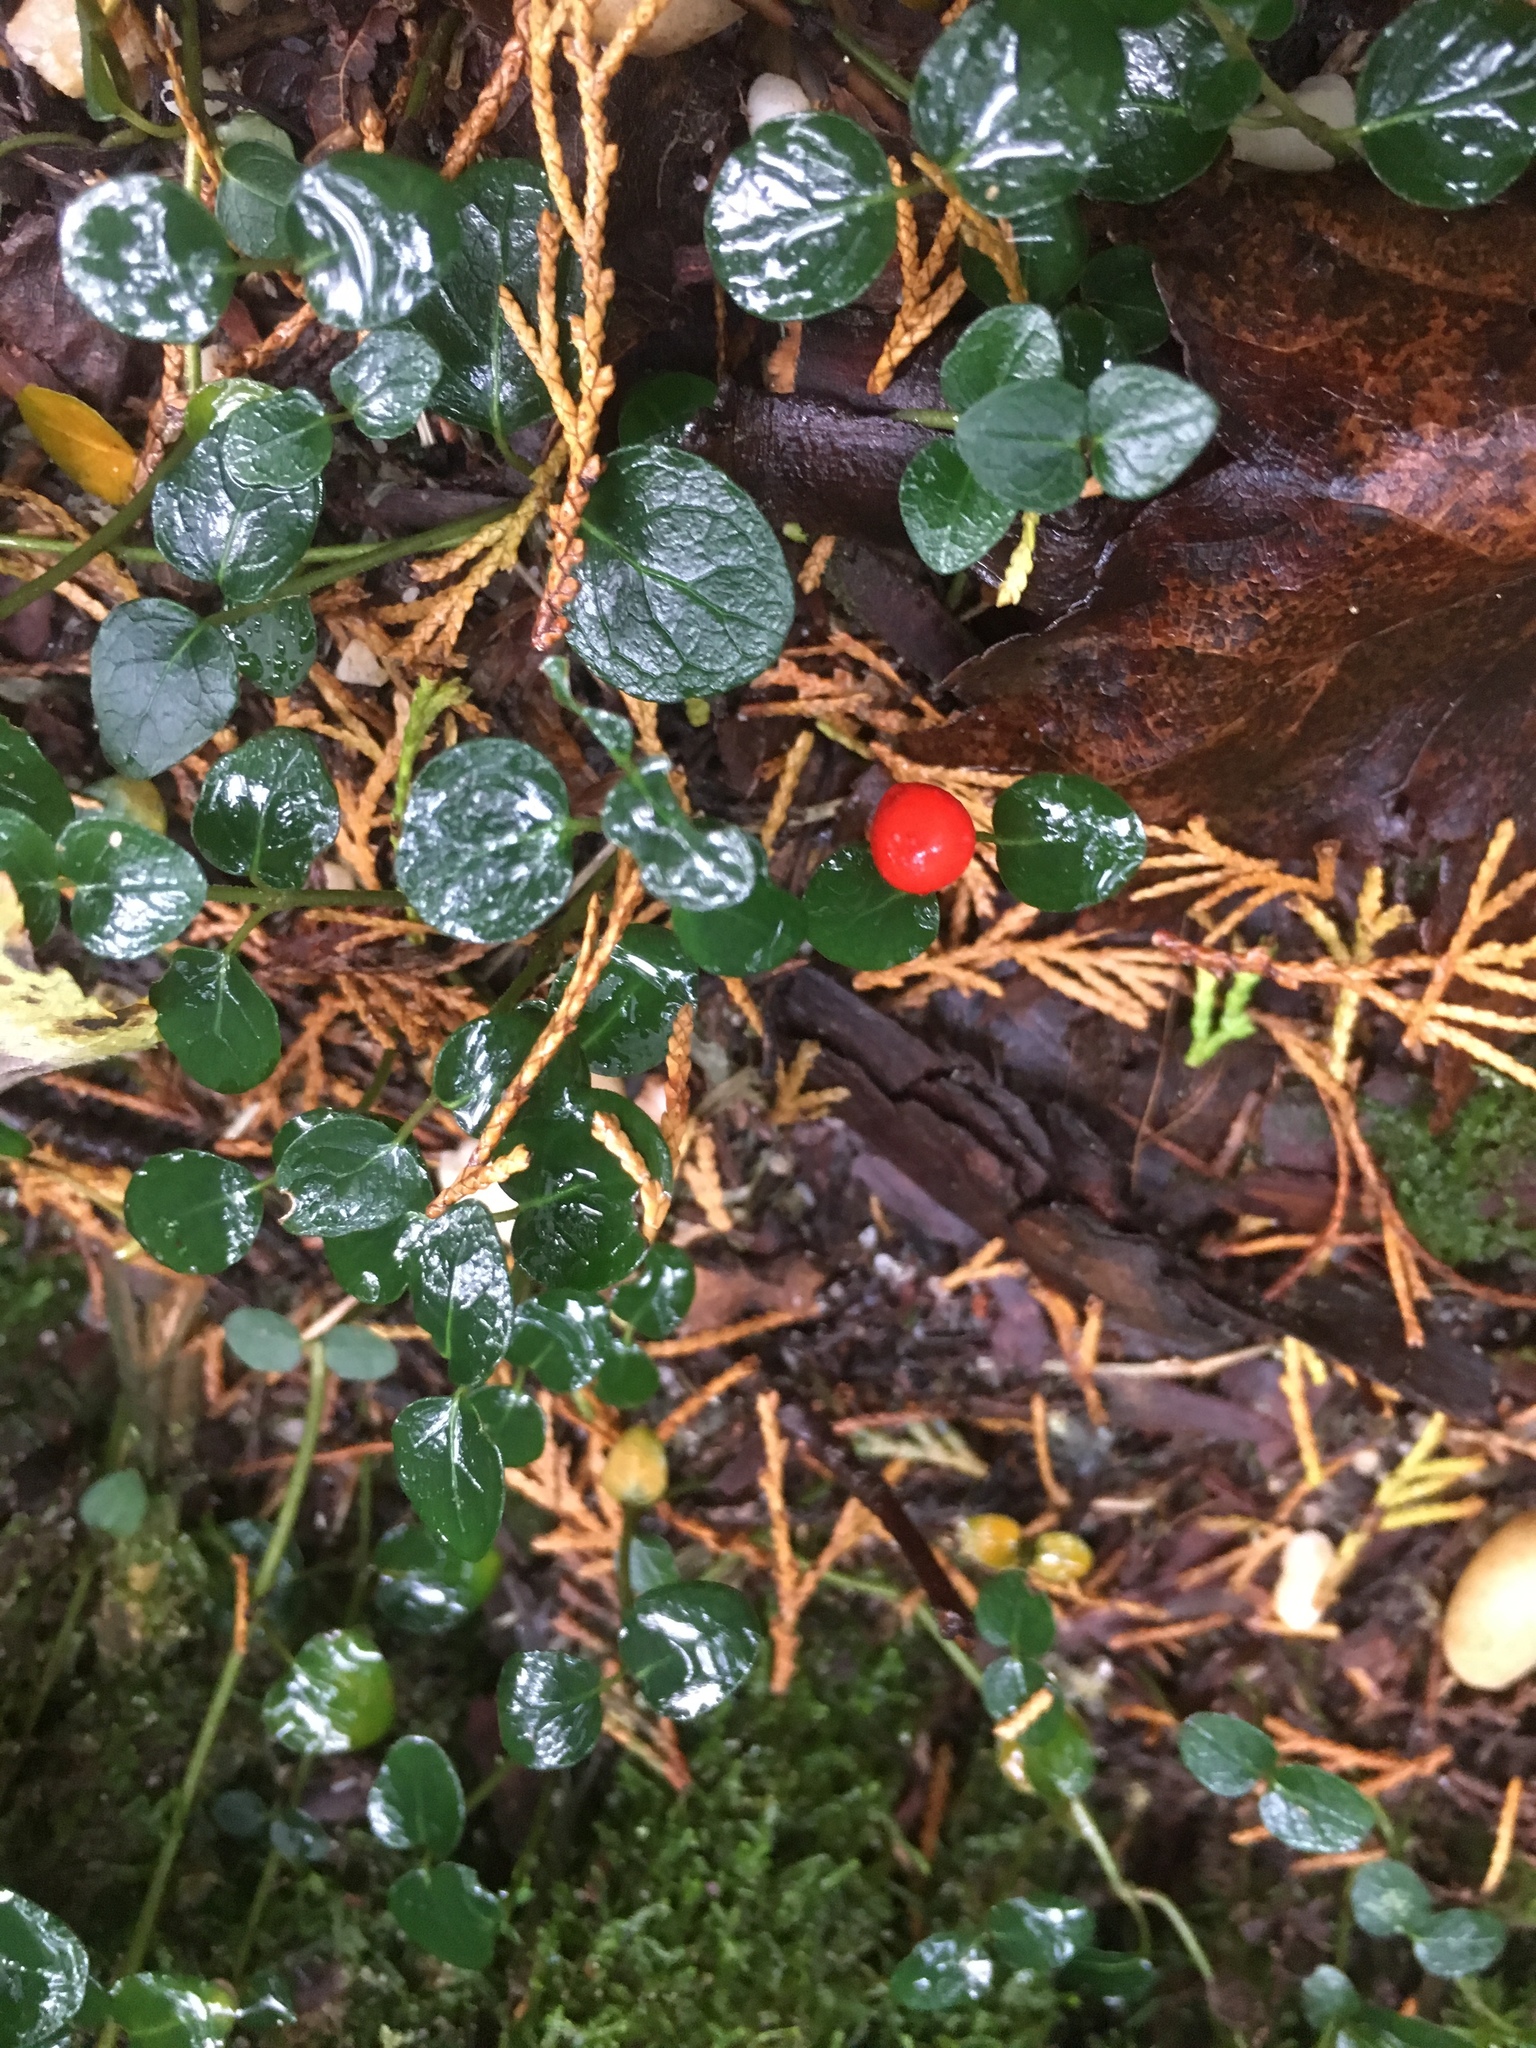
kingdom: Plantae
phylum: Tracheophyta
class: Magnoliopsida
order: Gentianales
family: Rubiaceae
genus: Mitchella
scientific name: Mitchella repens
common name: Partridge-berry
